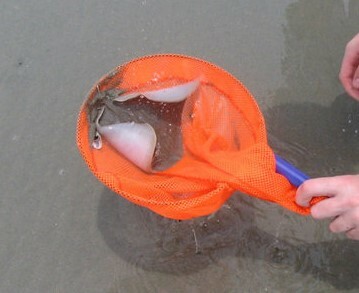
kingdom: Animalia
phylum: Chordata
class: Elasmobranchii
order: Myliobatiformes
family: Gymnuridae
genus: Gymnura
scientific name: Gymnura lessae
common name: Lessa's butterfly ray
